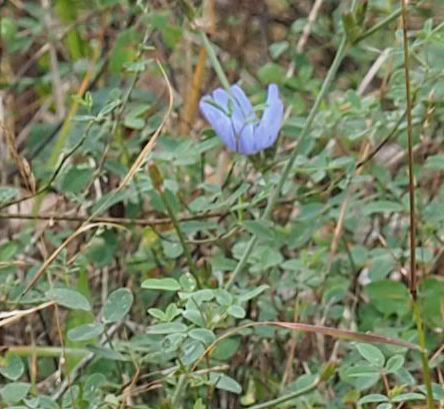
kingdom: Plantae
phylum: Tracheophyta
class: Magnoliopsida
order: Asterales
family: Asteraceae
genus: Cichorium
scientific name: Cichorium intybus
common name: Chicory
